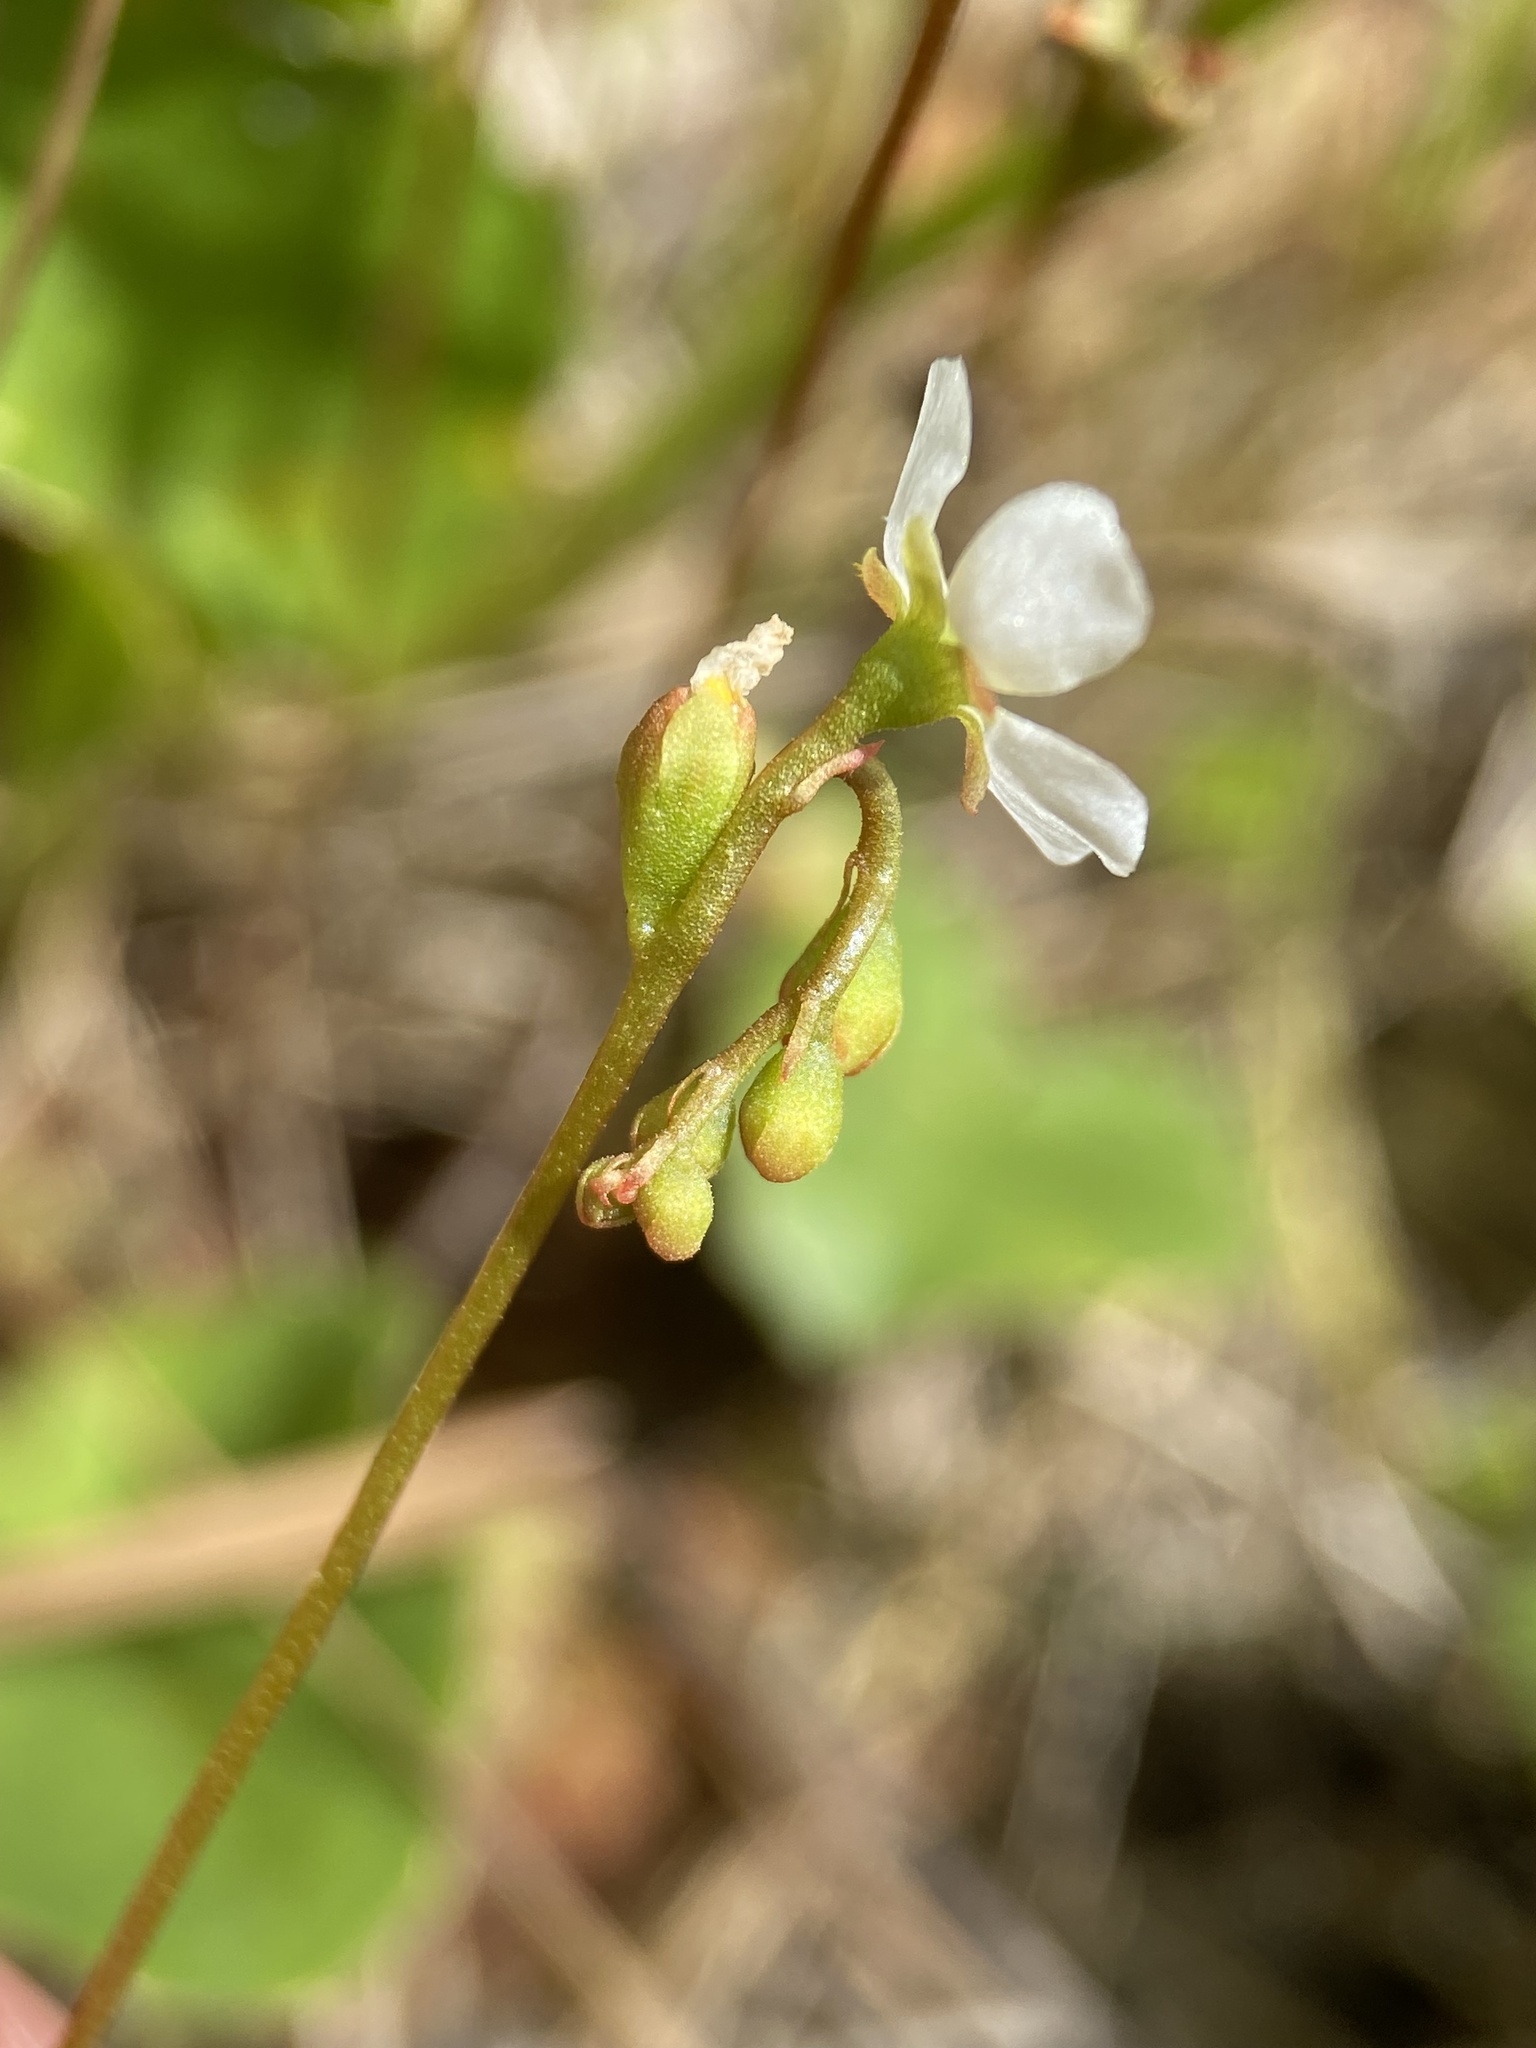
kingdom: Plantae
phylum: Tracheophyta
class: Magnoliopsida
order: Caryophyllales
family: Droseraceae
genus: Drosera
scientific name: Drosera capillaris
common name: Pink sundew
